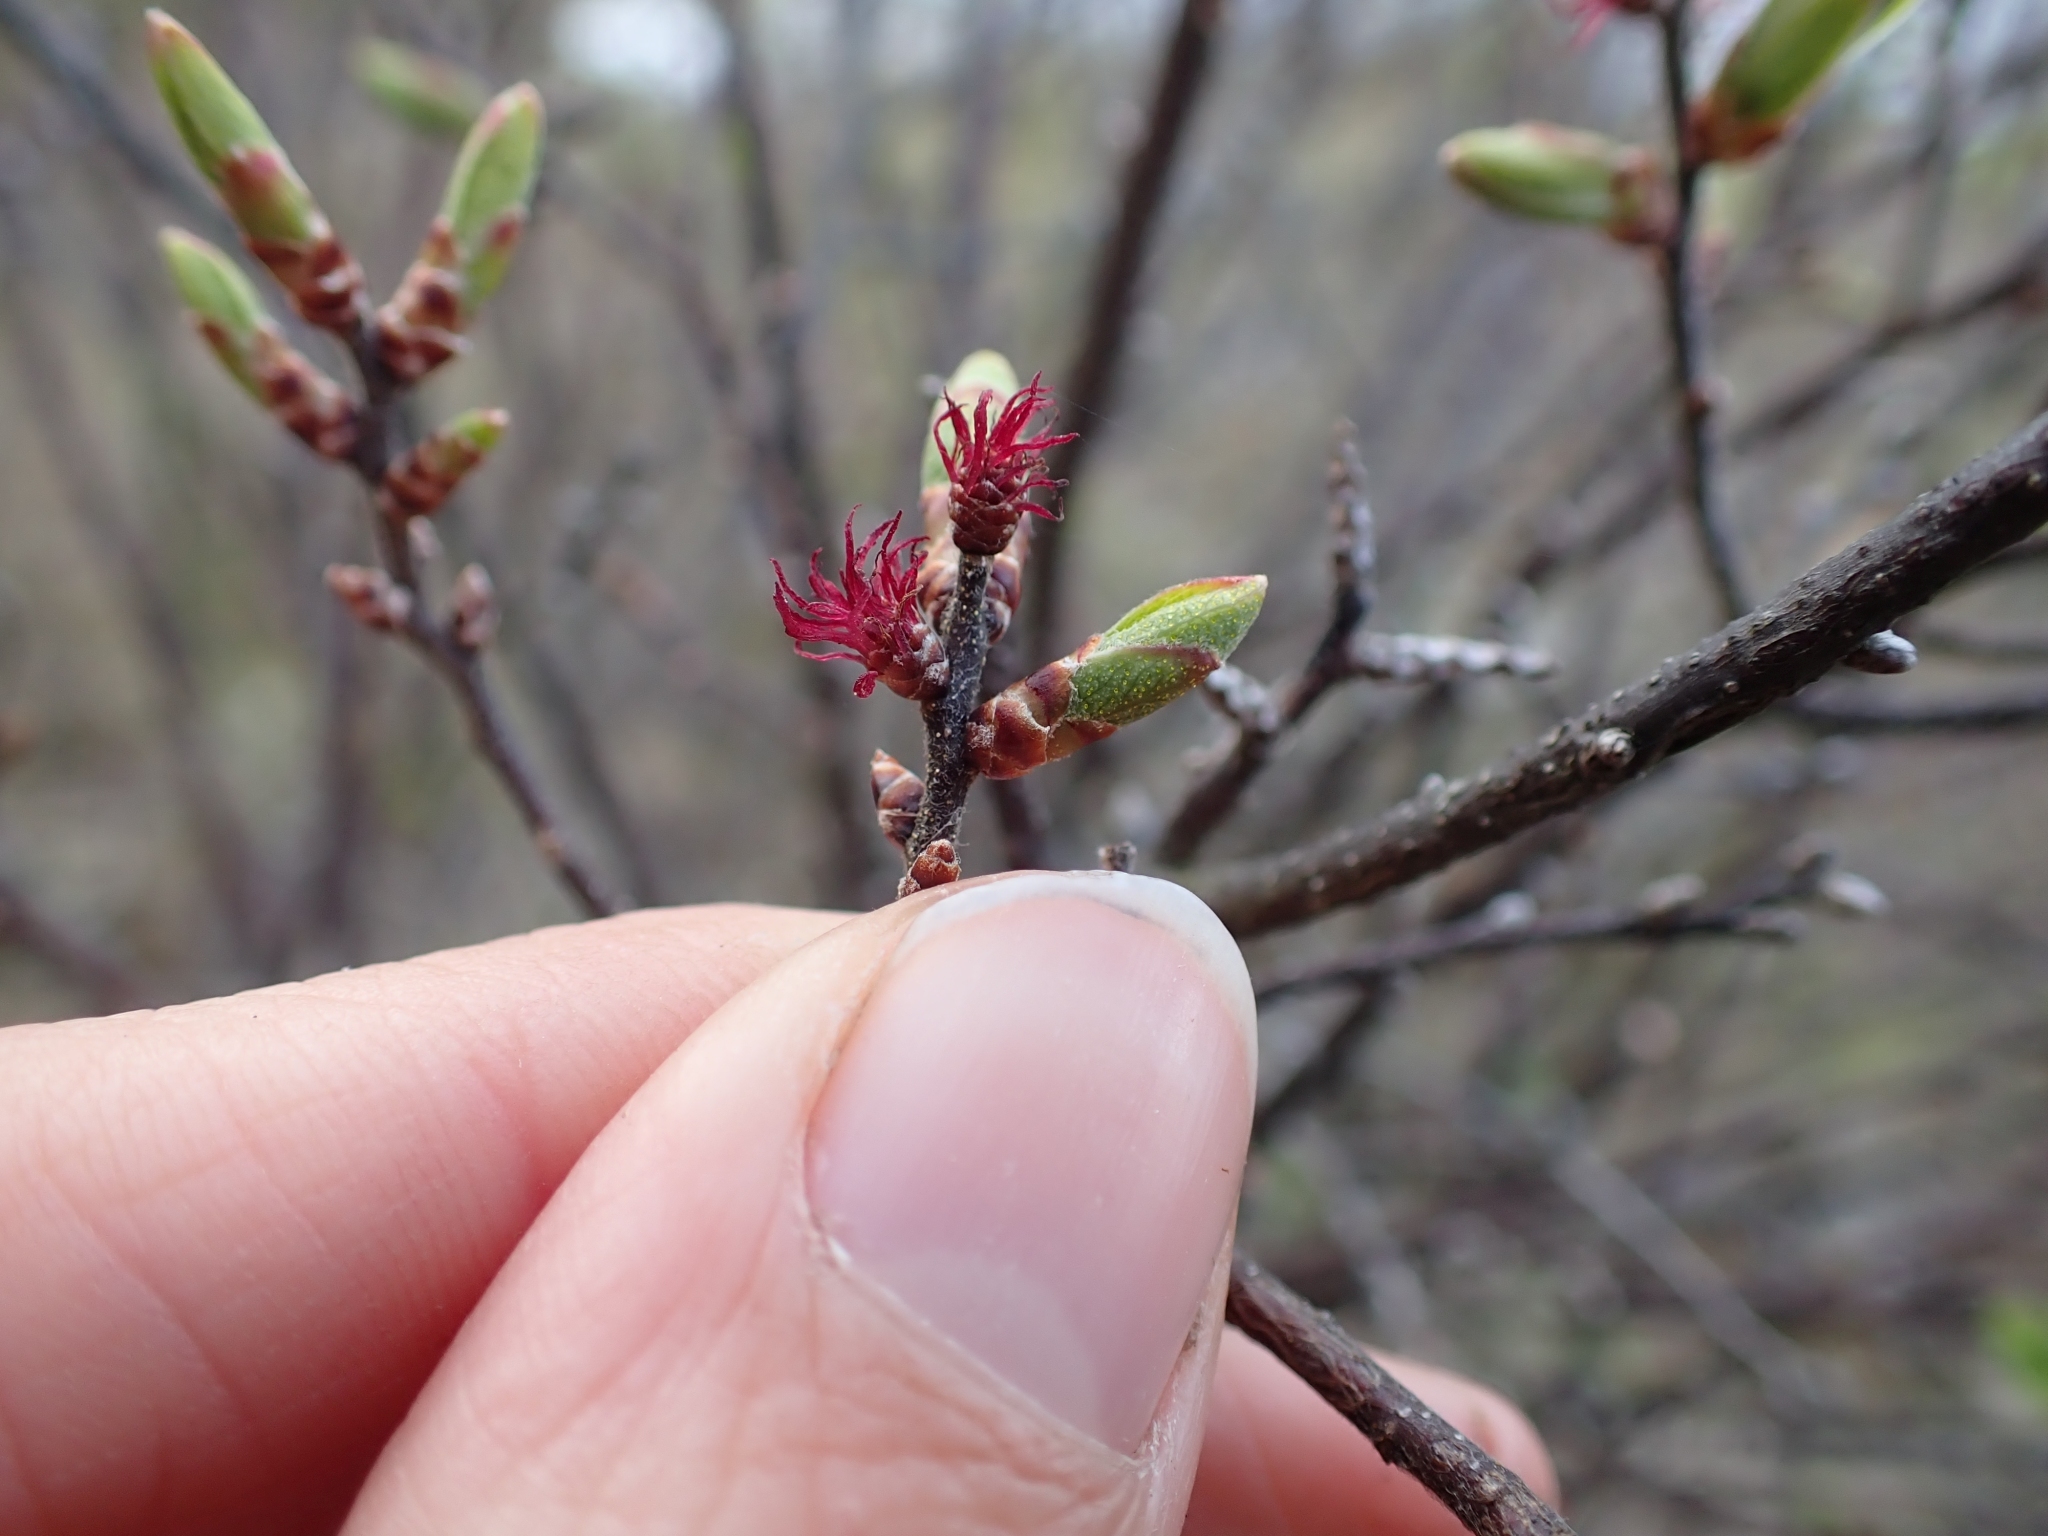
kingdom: Plantae
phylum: Tracheophyta
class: Magnoliopsida
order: Fagales
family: Myricaceae
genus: Myrica
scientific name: Myrica gale
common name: Sweet gale
